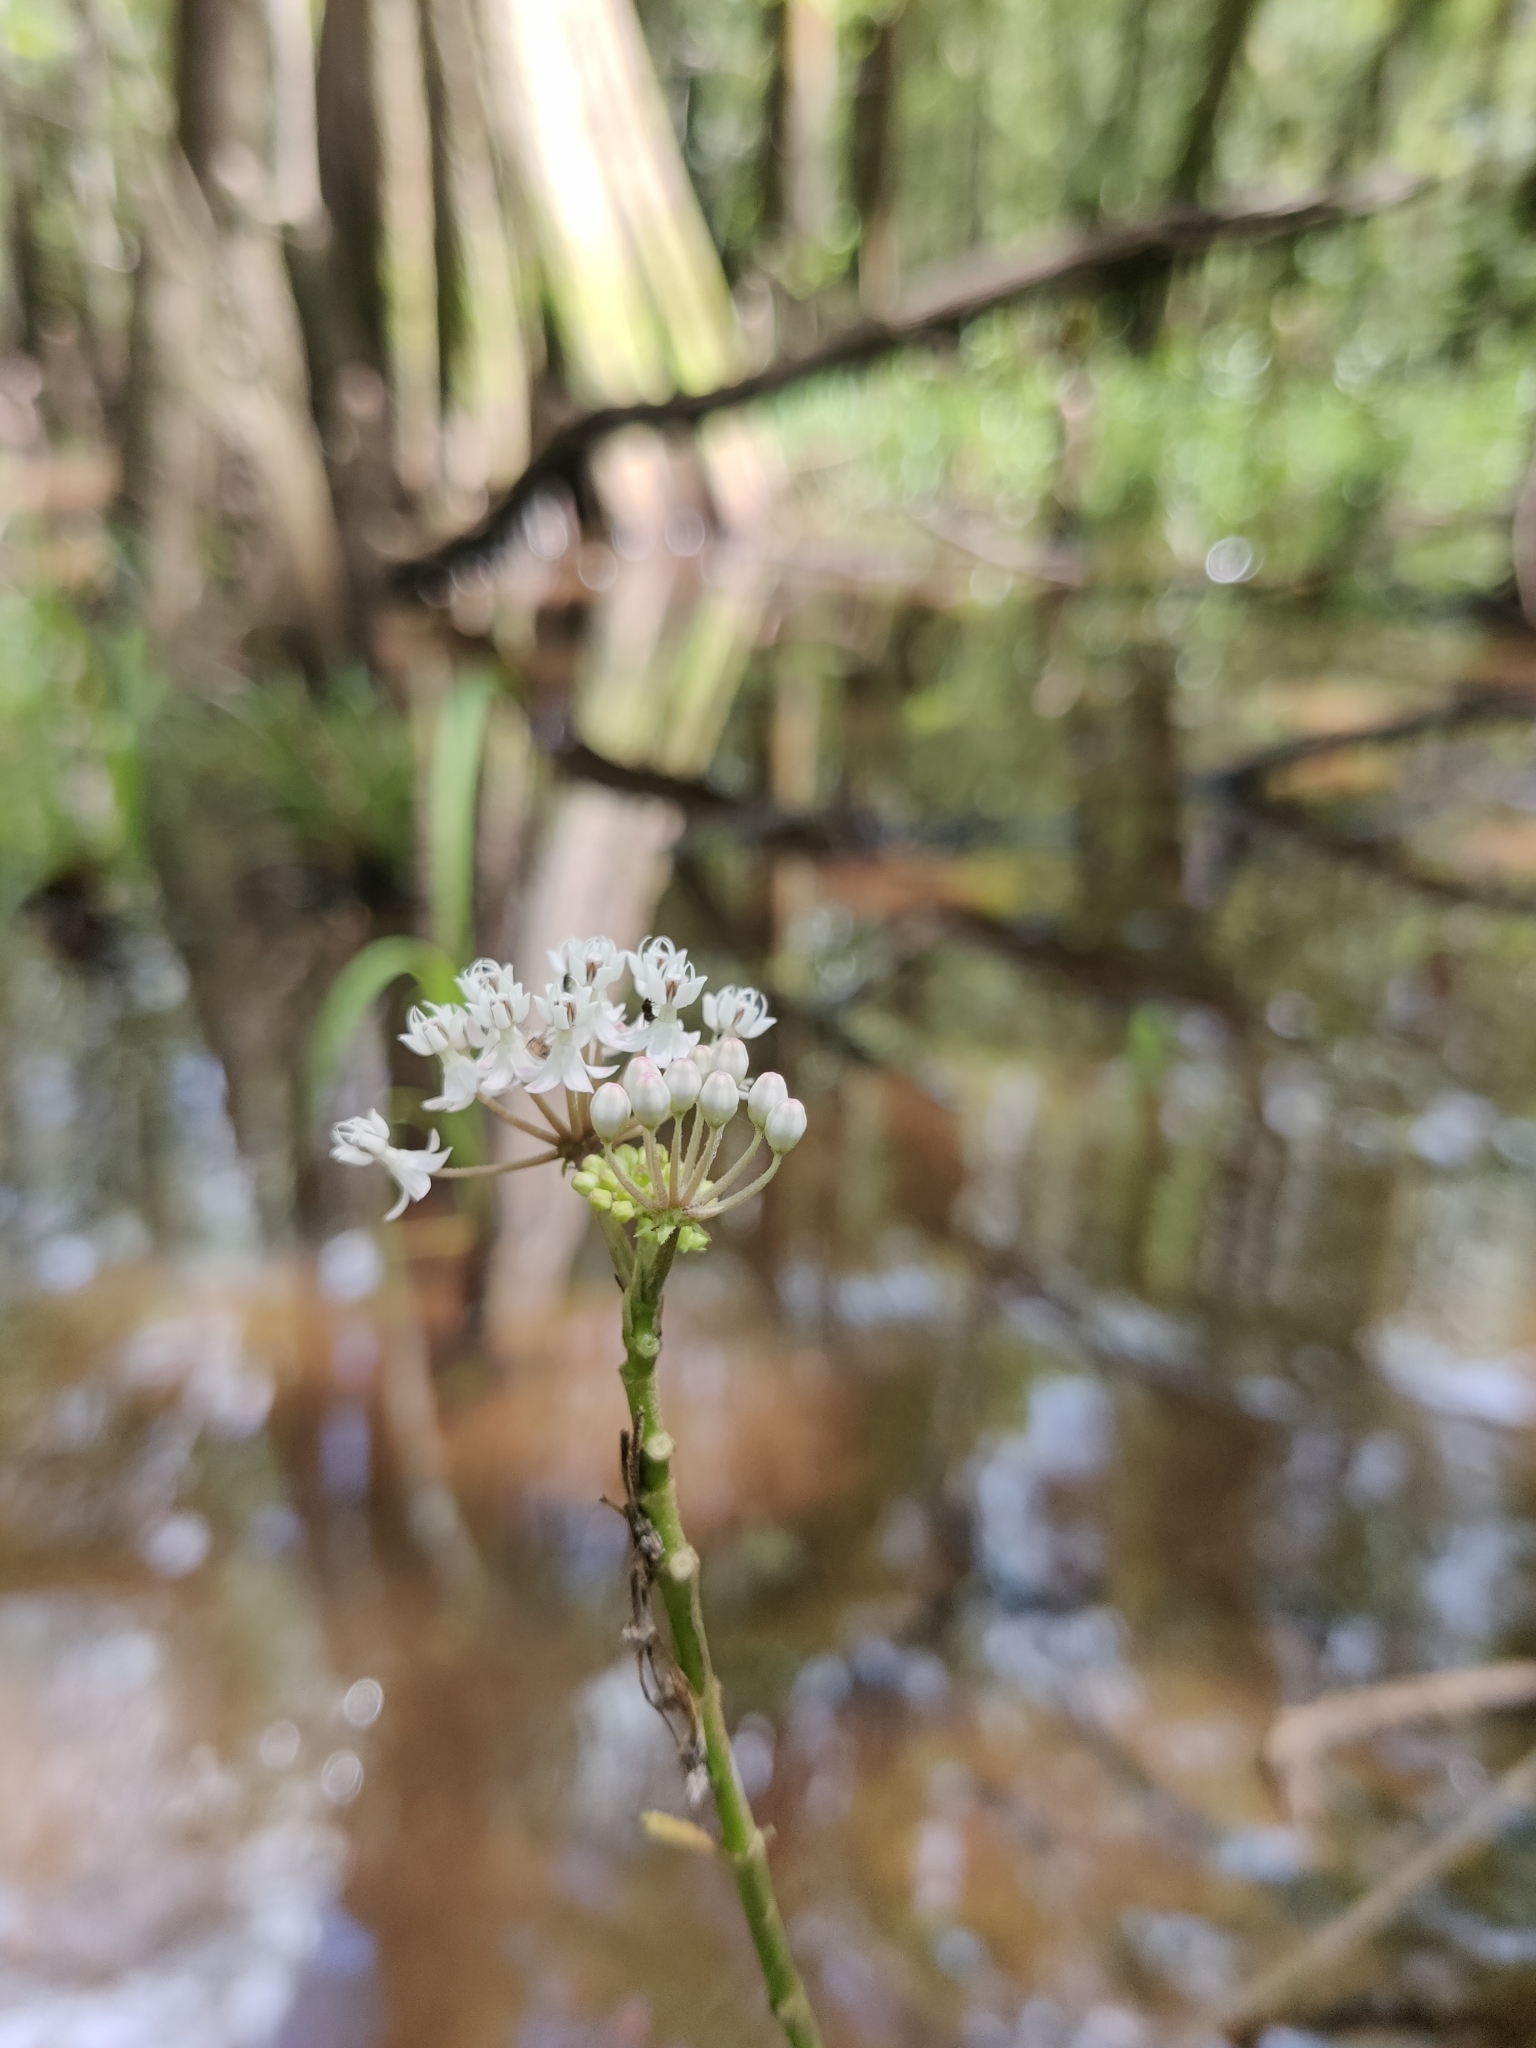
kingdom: Plantae
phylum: Tracheophyta
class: Magnoliopsida
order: Gentianales
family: Apocynaceae
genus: Asclepias
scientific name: Asclepias perennis
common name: Smooth-seed milkweed
